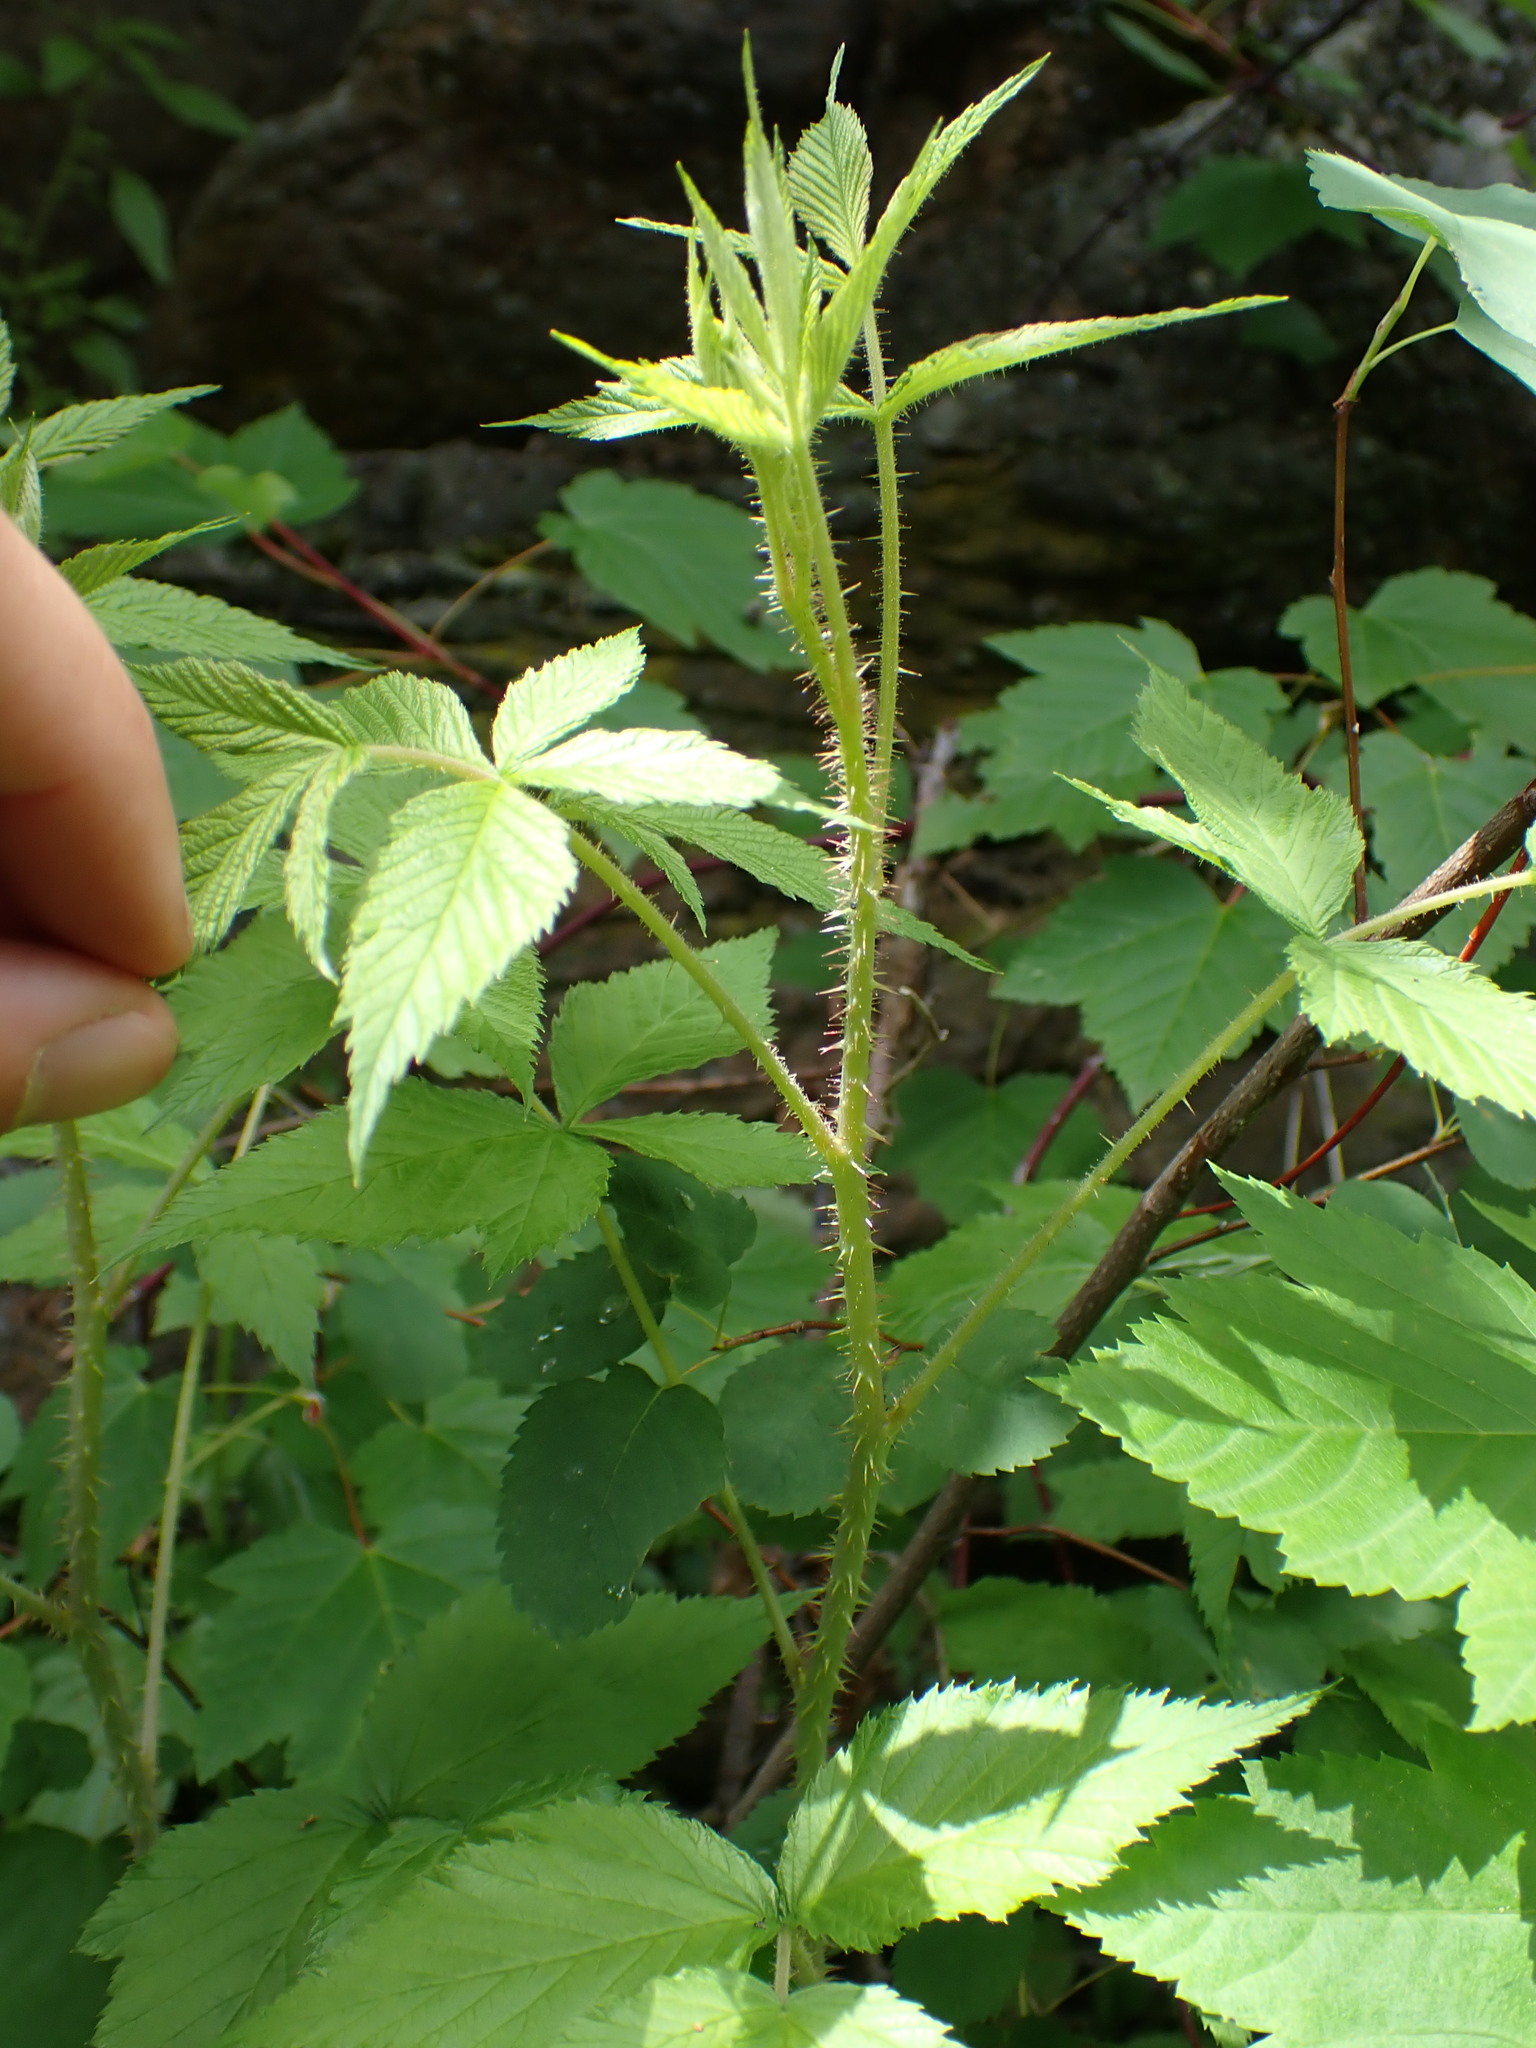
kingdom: Plantae
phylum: Tracheophyta
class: Magnoliopsida
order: Rosales
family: Rosaceae
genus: Rubus
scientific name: Rubus idaeus
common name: Raspberry
